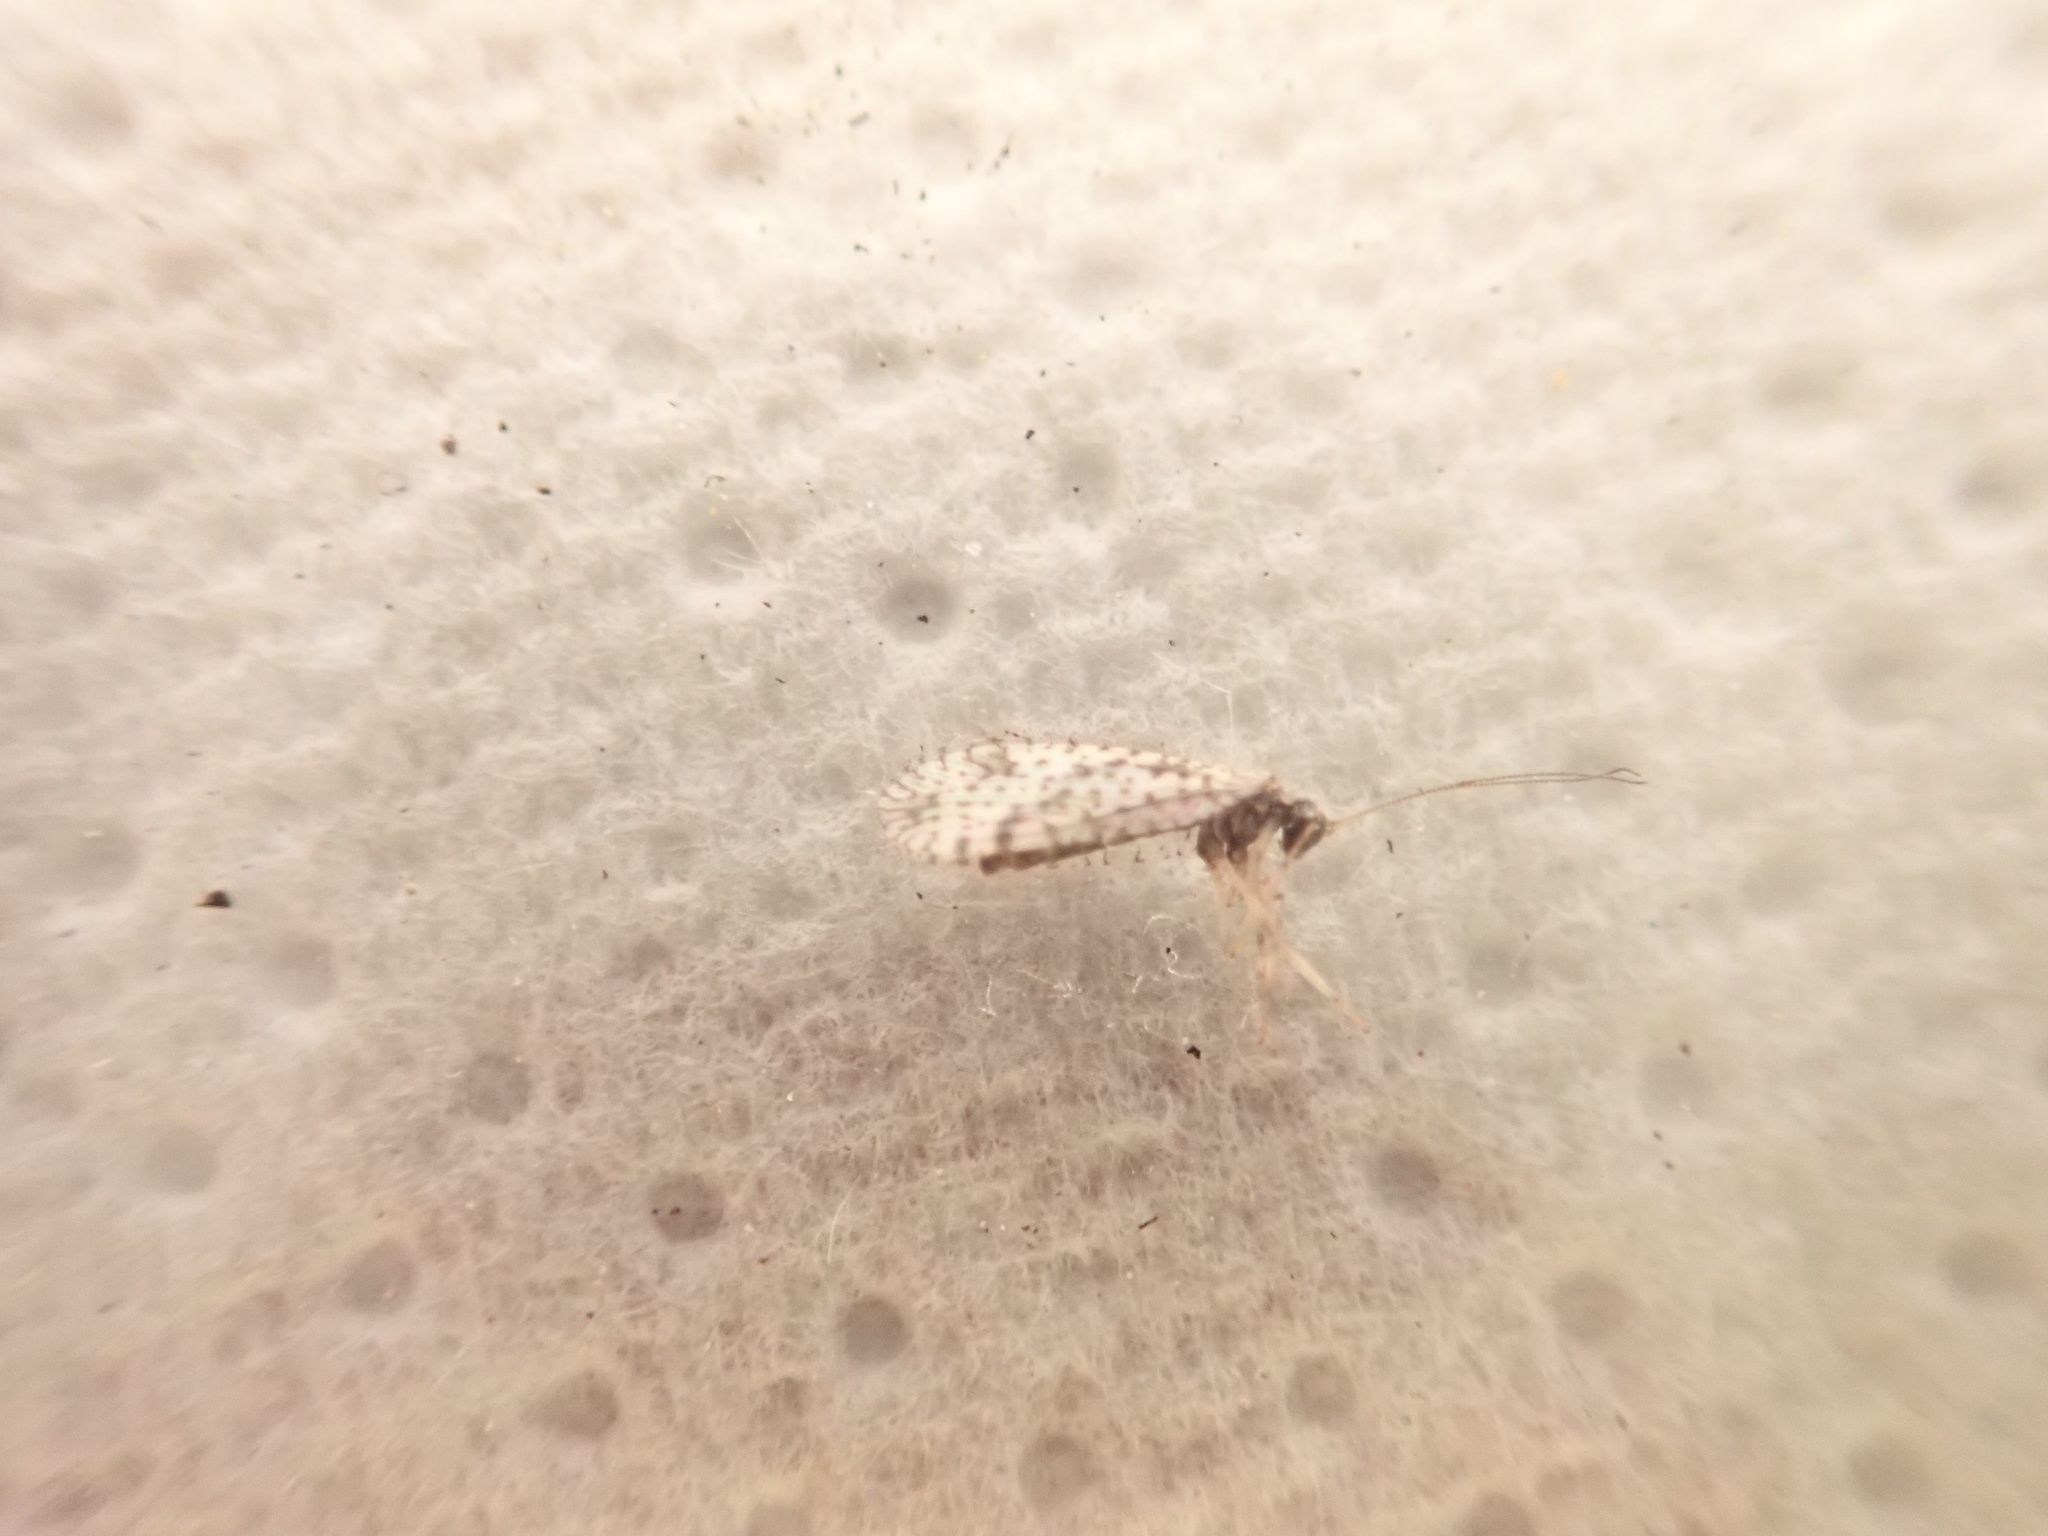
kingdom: Animalia
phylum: Arthropoda
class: Insecta
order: Neuroptera
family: Hemerobiidae
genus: Micromus
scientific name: Micromus variegatus
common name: Brown lacewing
